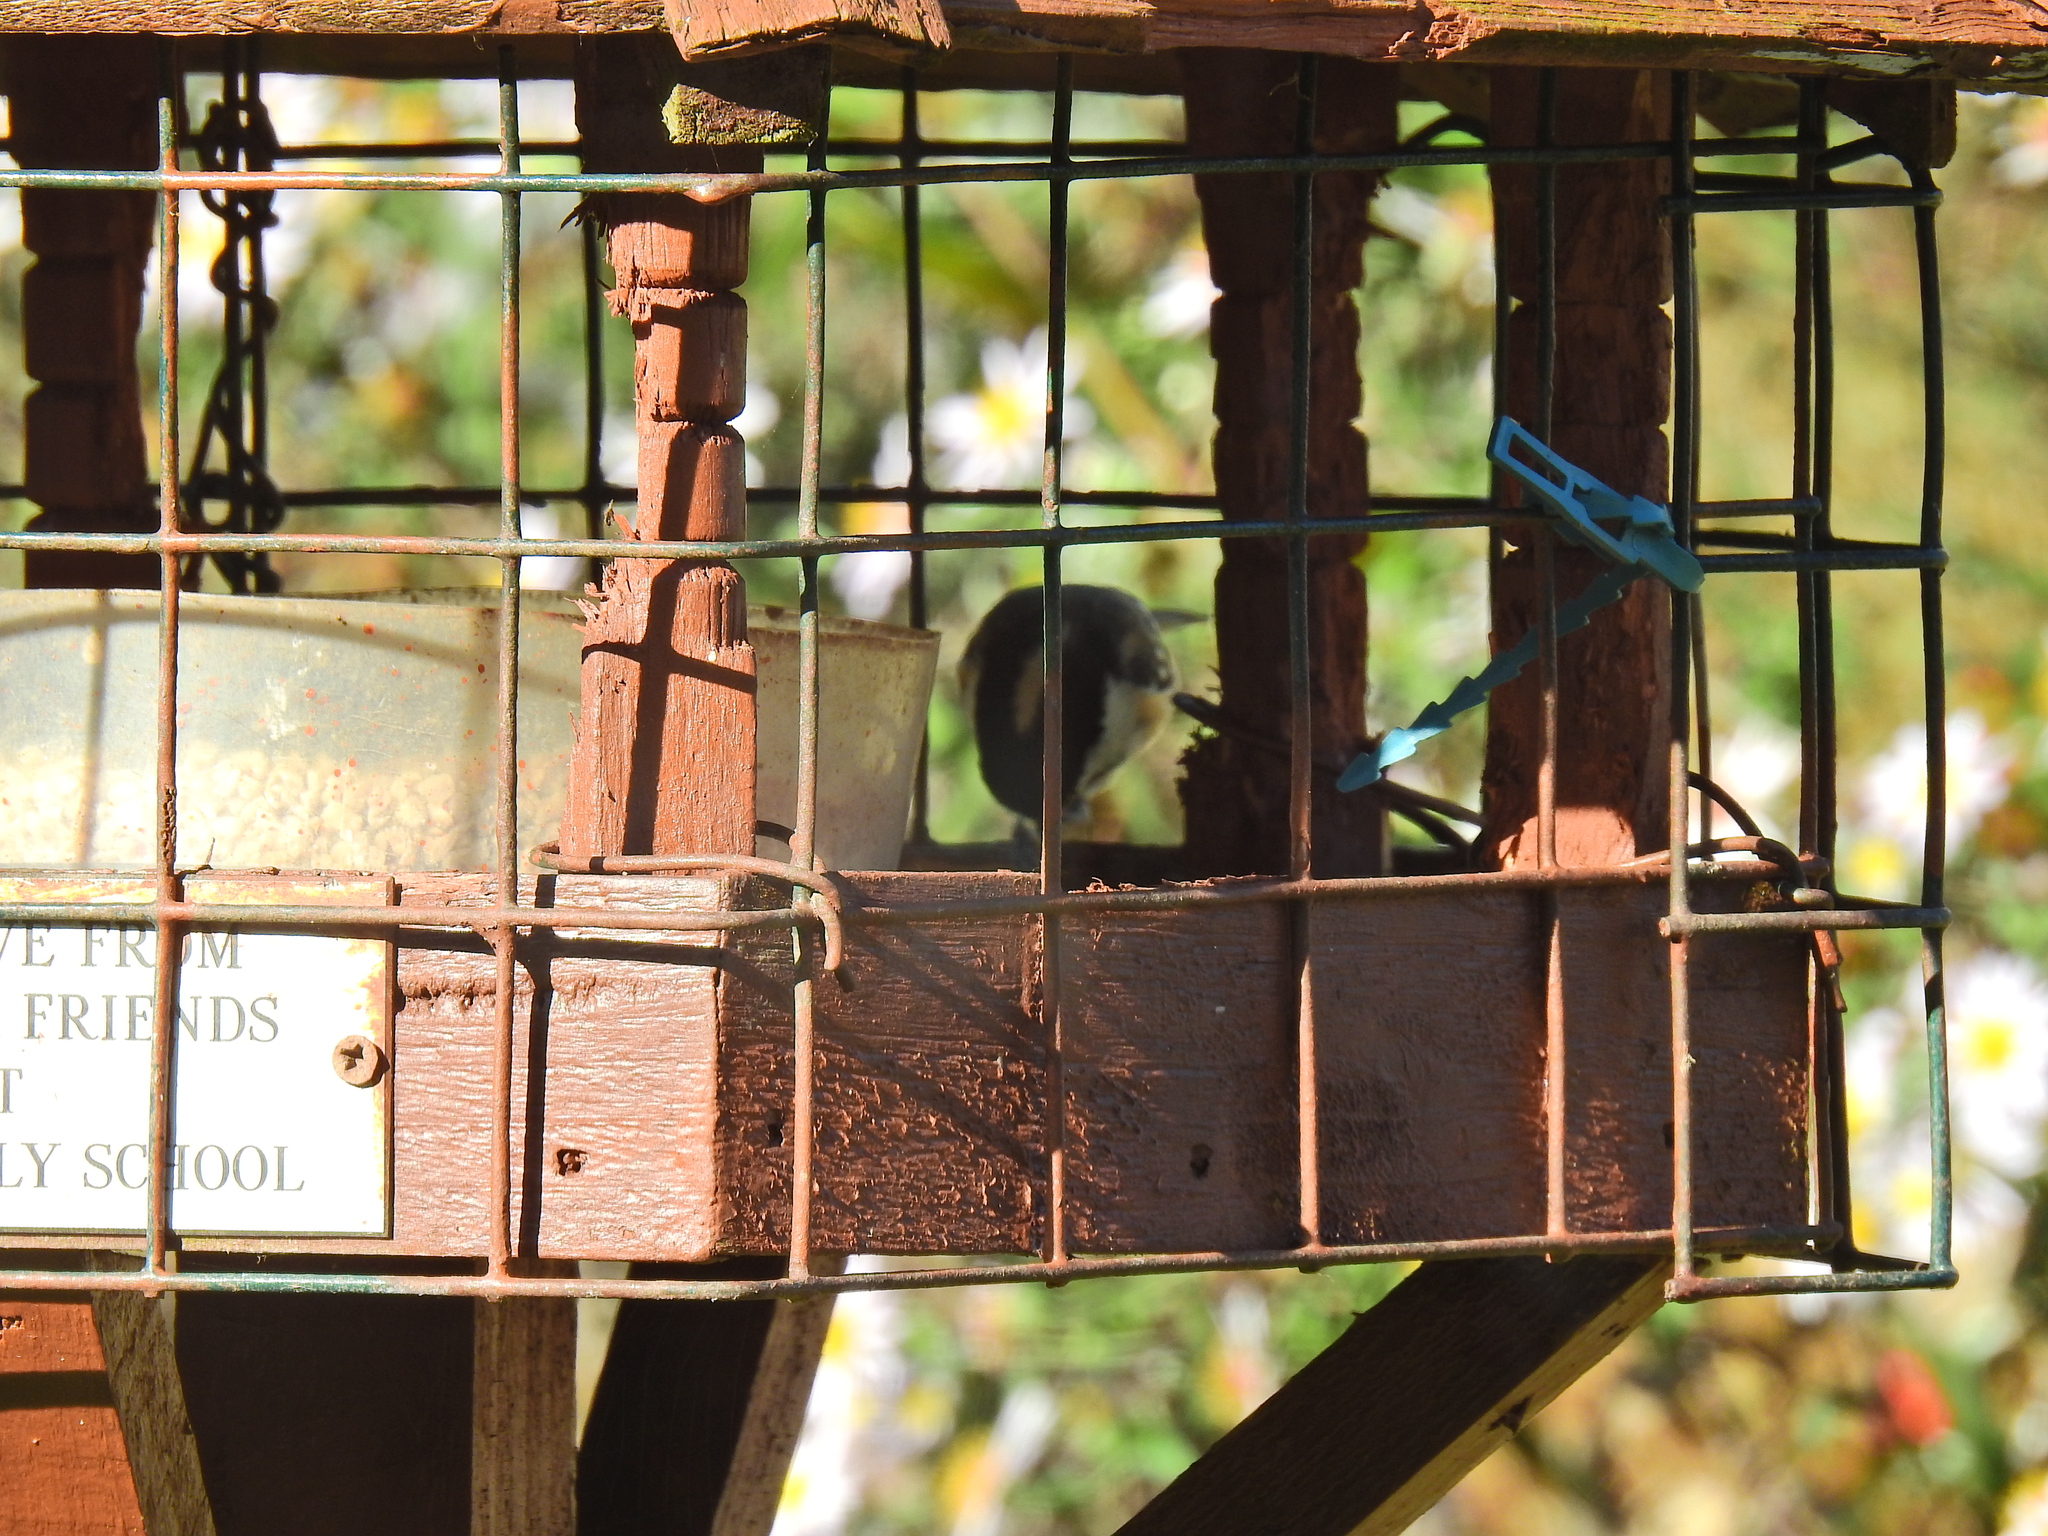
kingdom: Animalia
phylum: Chordata
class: Aves
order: Passeriformes
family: Paridae
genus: Periparus
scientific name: Periparus ater
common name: Coal tit
